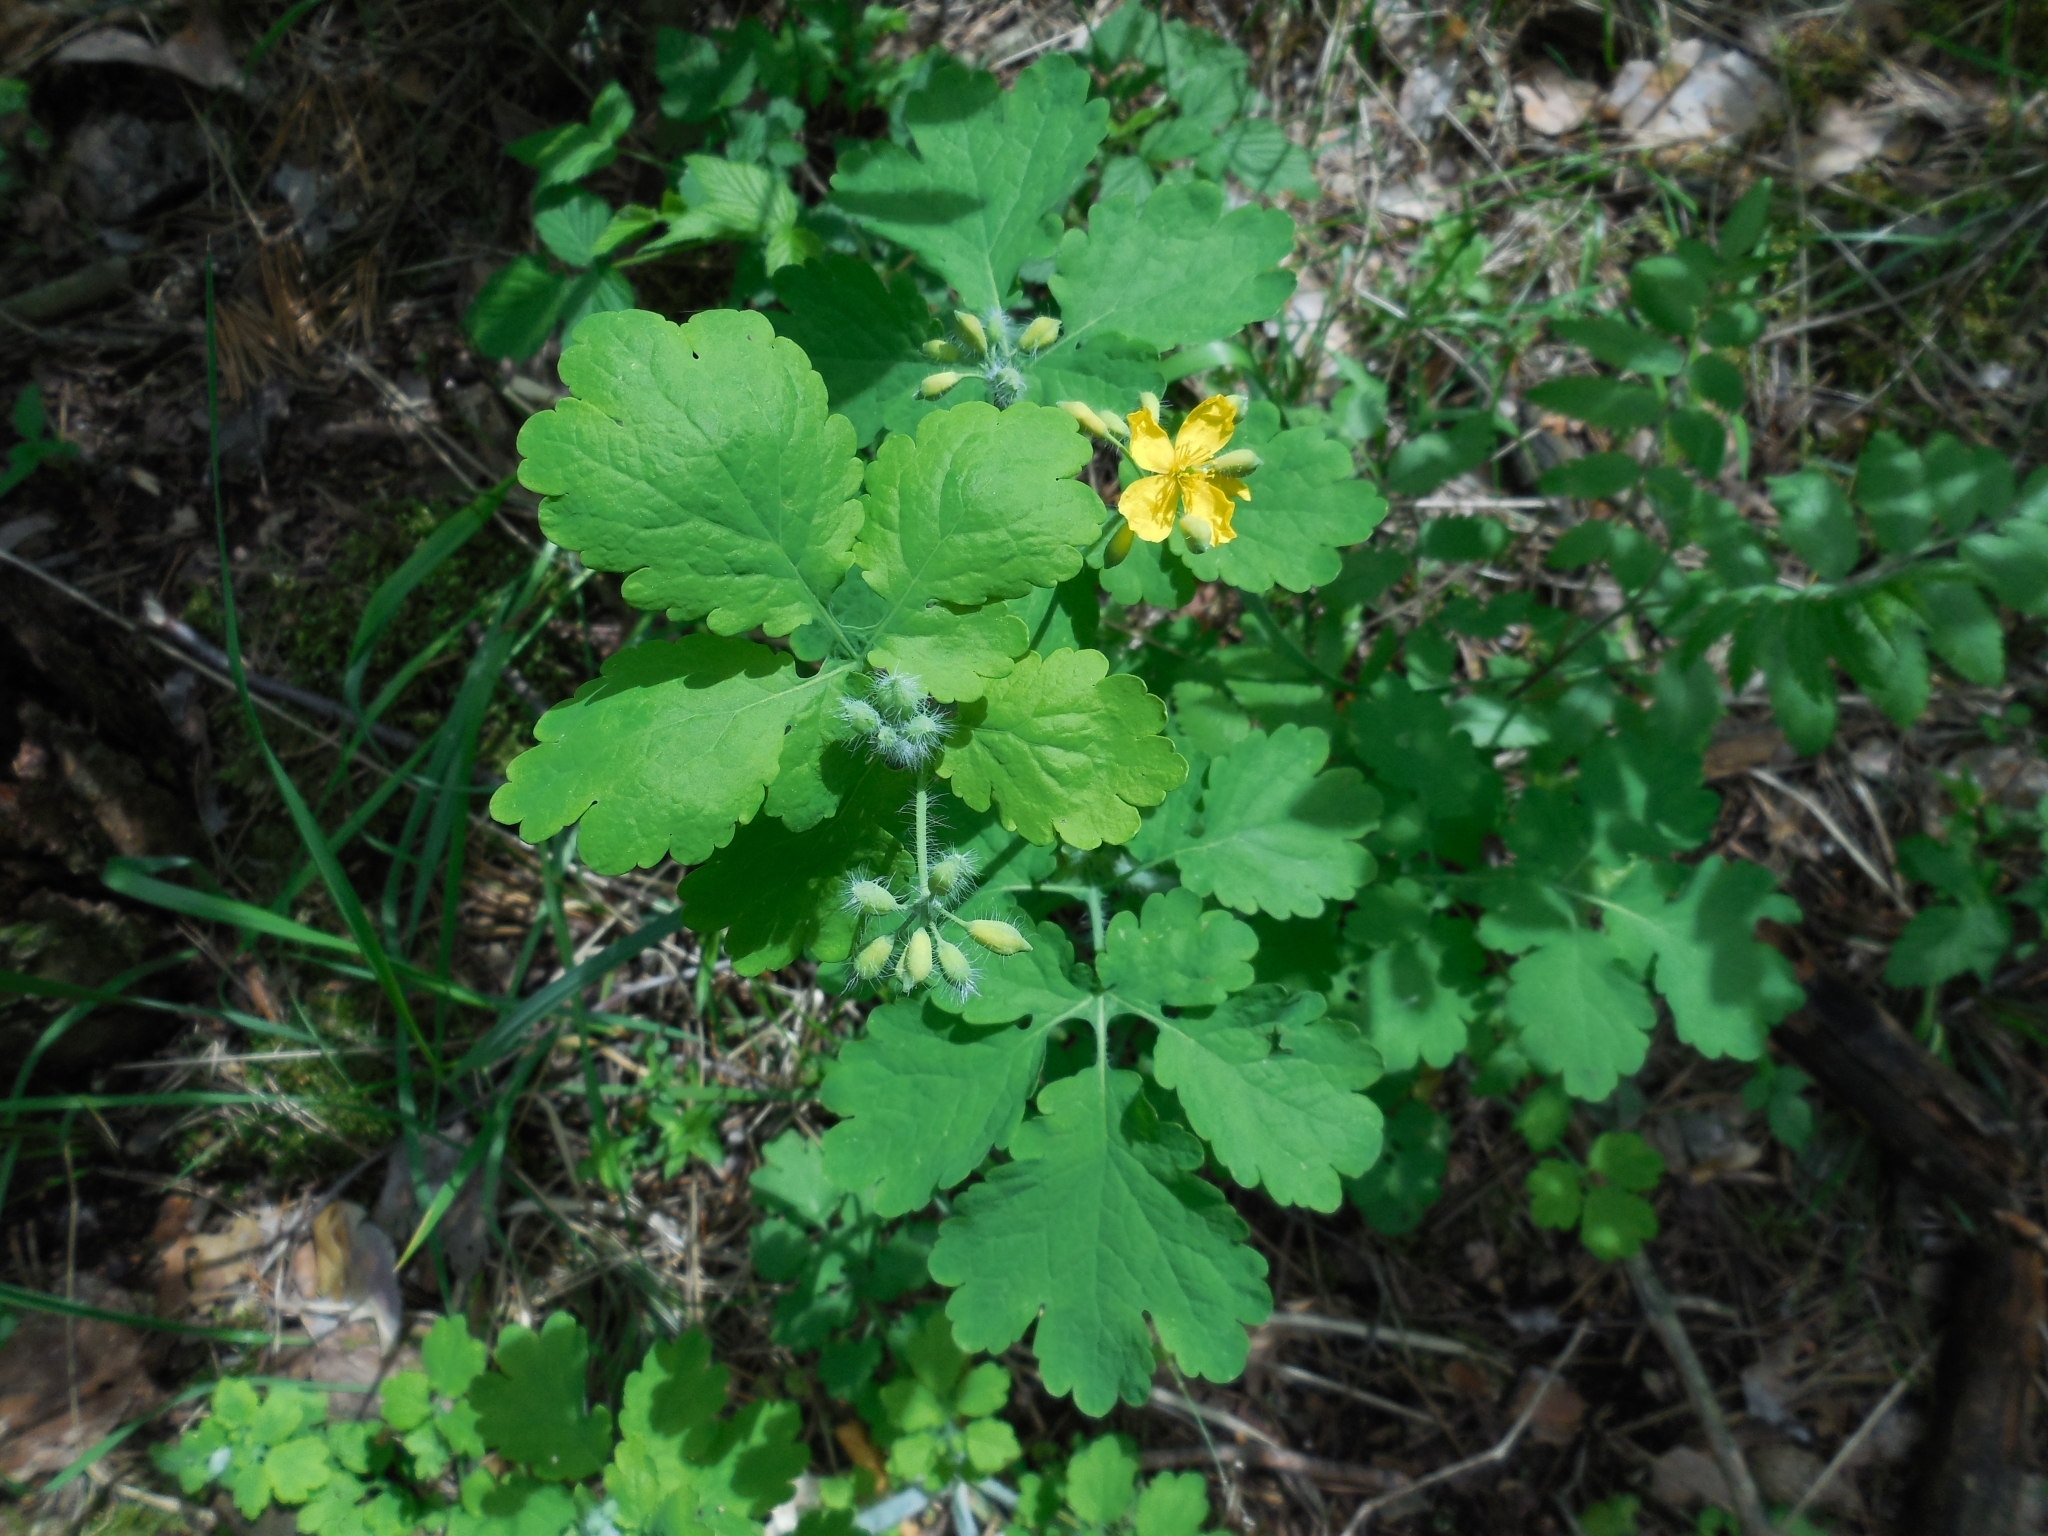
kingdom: Plantae
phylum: Tracheophyta
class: Magnoliopsida
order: Ranunculales
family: Papaveraceae
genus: Chelidonium
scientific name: Chelidonium majus
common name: Greater celandine
